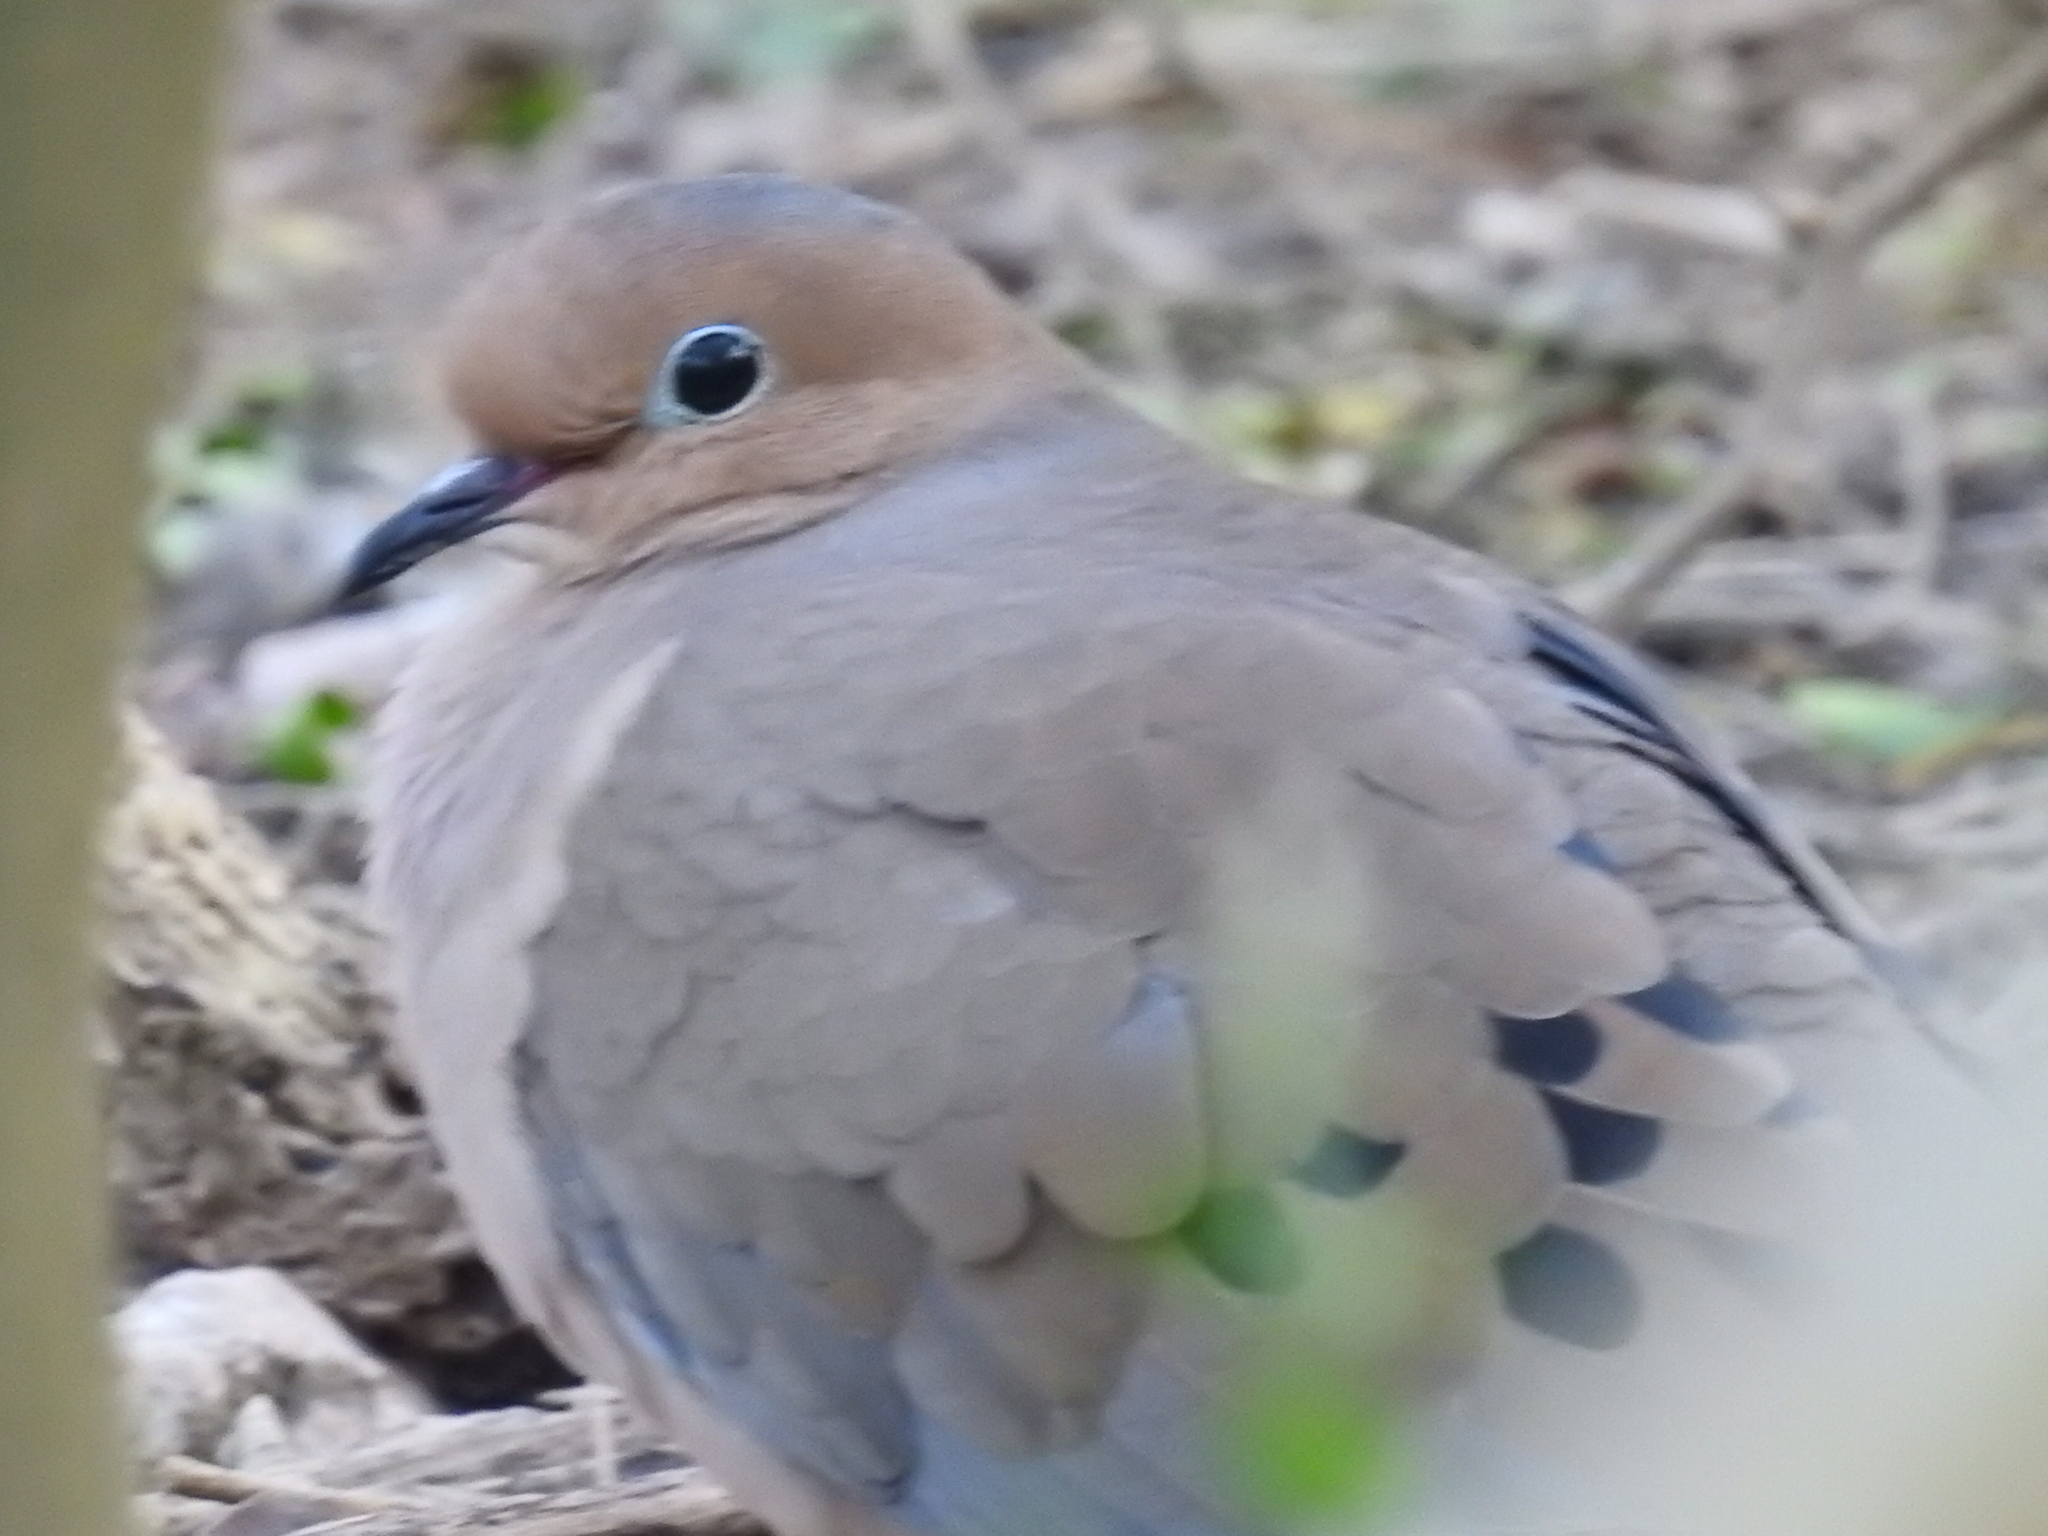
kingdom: Animalia
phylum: Chordata
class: Aves
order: Columbiformes
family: Columbidae
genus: Zenaida
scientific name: Zenaida macroura
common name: Mourning dove
